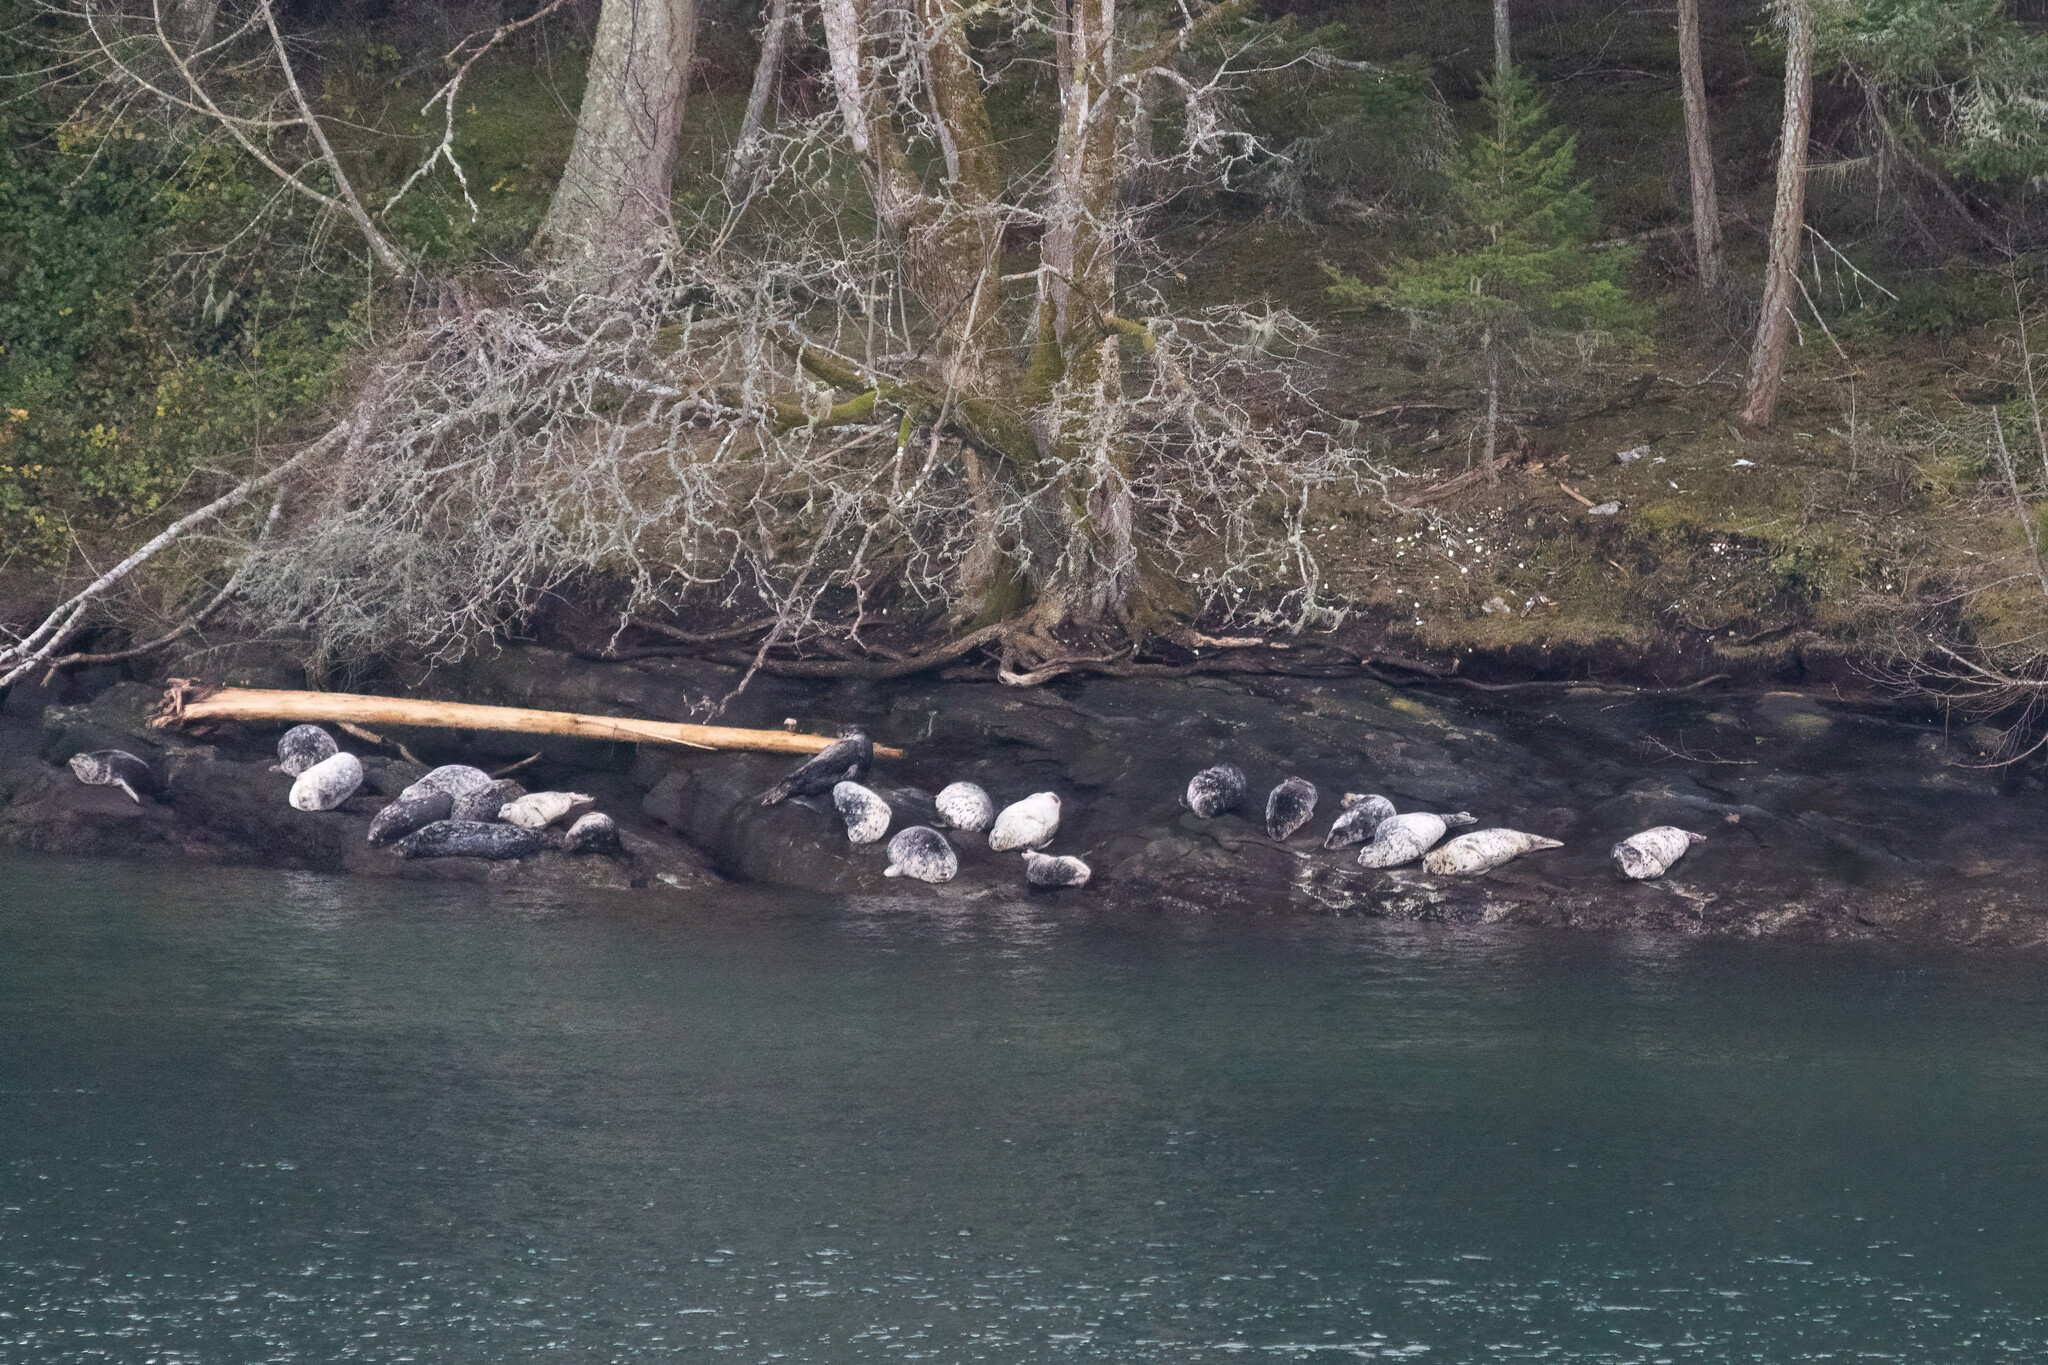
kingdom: Animalia
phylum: Chordata
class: Mammalia
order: Carnivora
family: Phocidae
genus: Phoca
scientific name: Phoca vitulina
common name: Harbor seal
